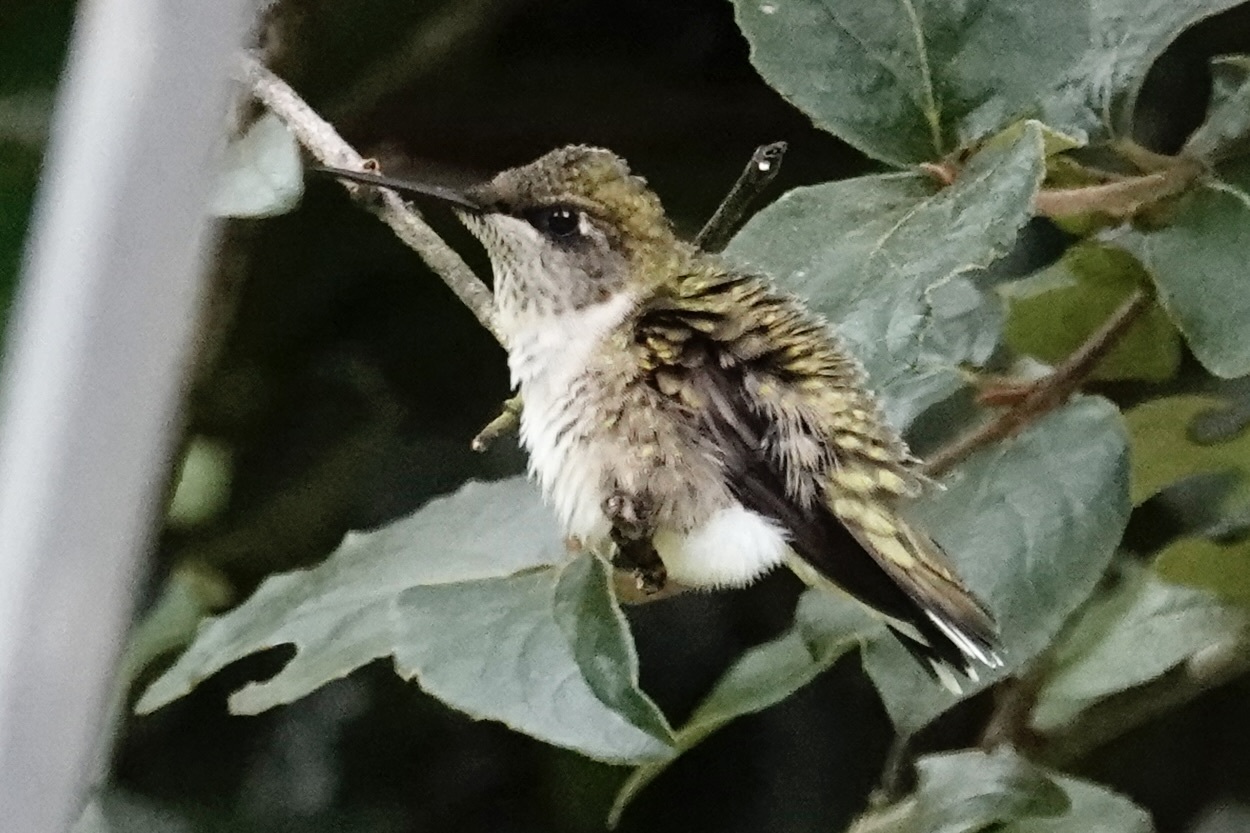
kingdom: Animalia
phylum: Chordata
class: Aves
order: Apodiformes
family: Trochilidae
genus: Archilochus
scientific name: Archilochus colubris
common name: Ruby-throated hummingbird
